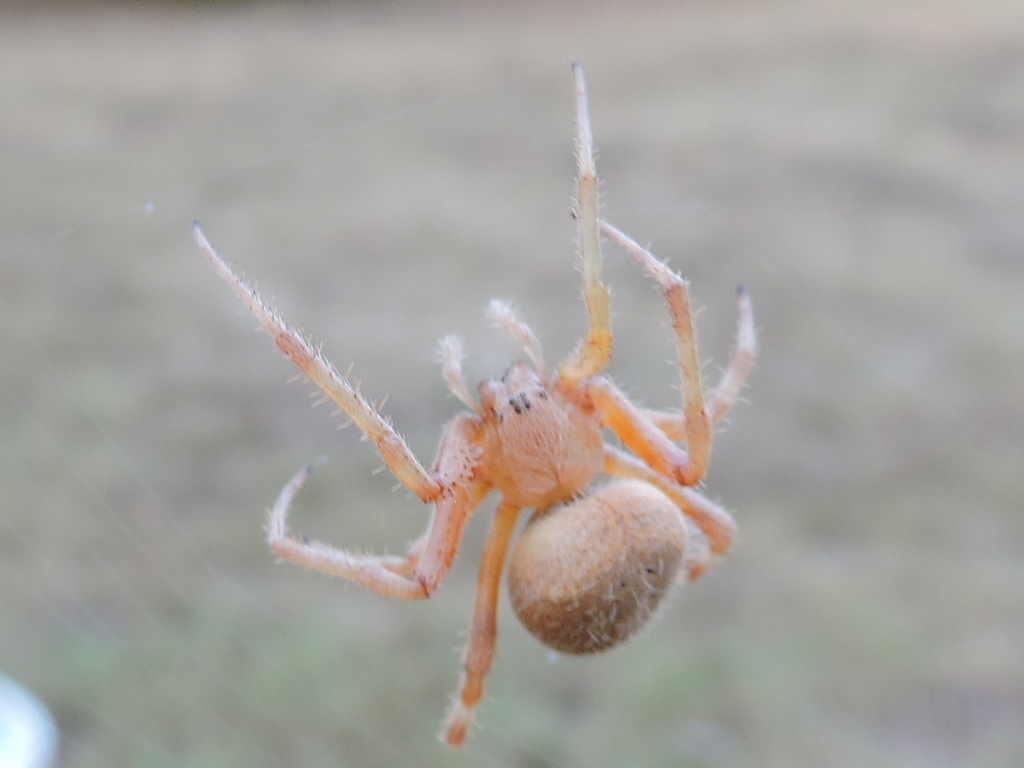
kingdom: Animalia
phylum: Arthropoda
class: Arachnida
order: Araneae
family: Araneidae
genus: Neoscona
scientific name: Neoscona crucifera
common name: Spotted orbweaver
